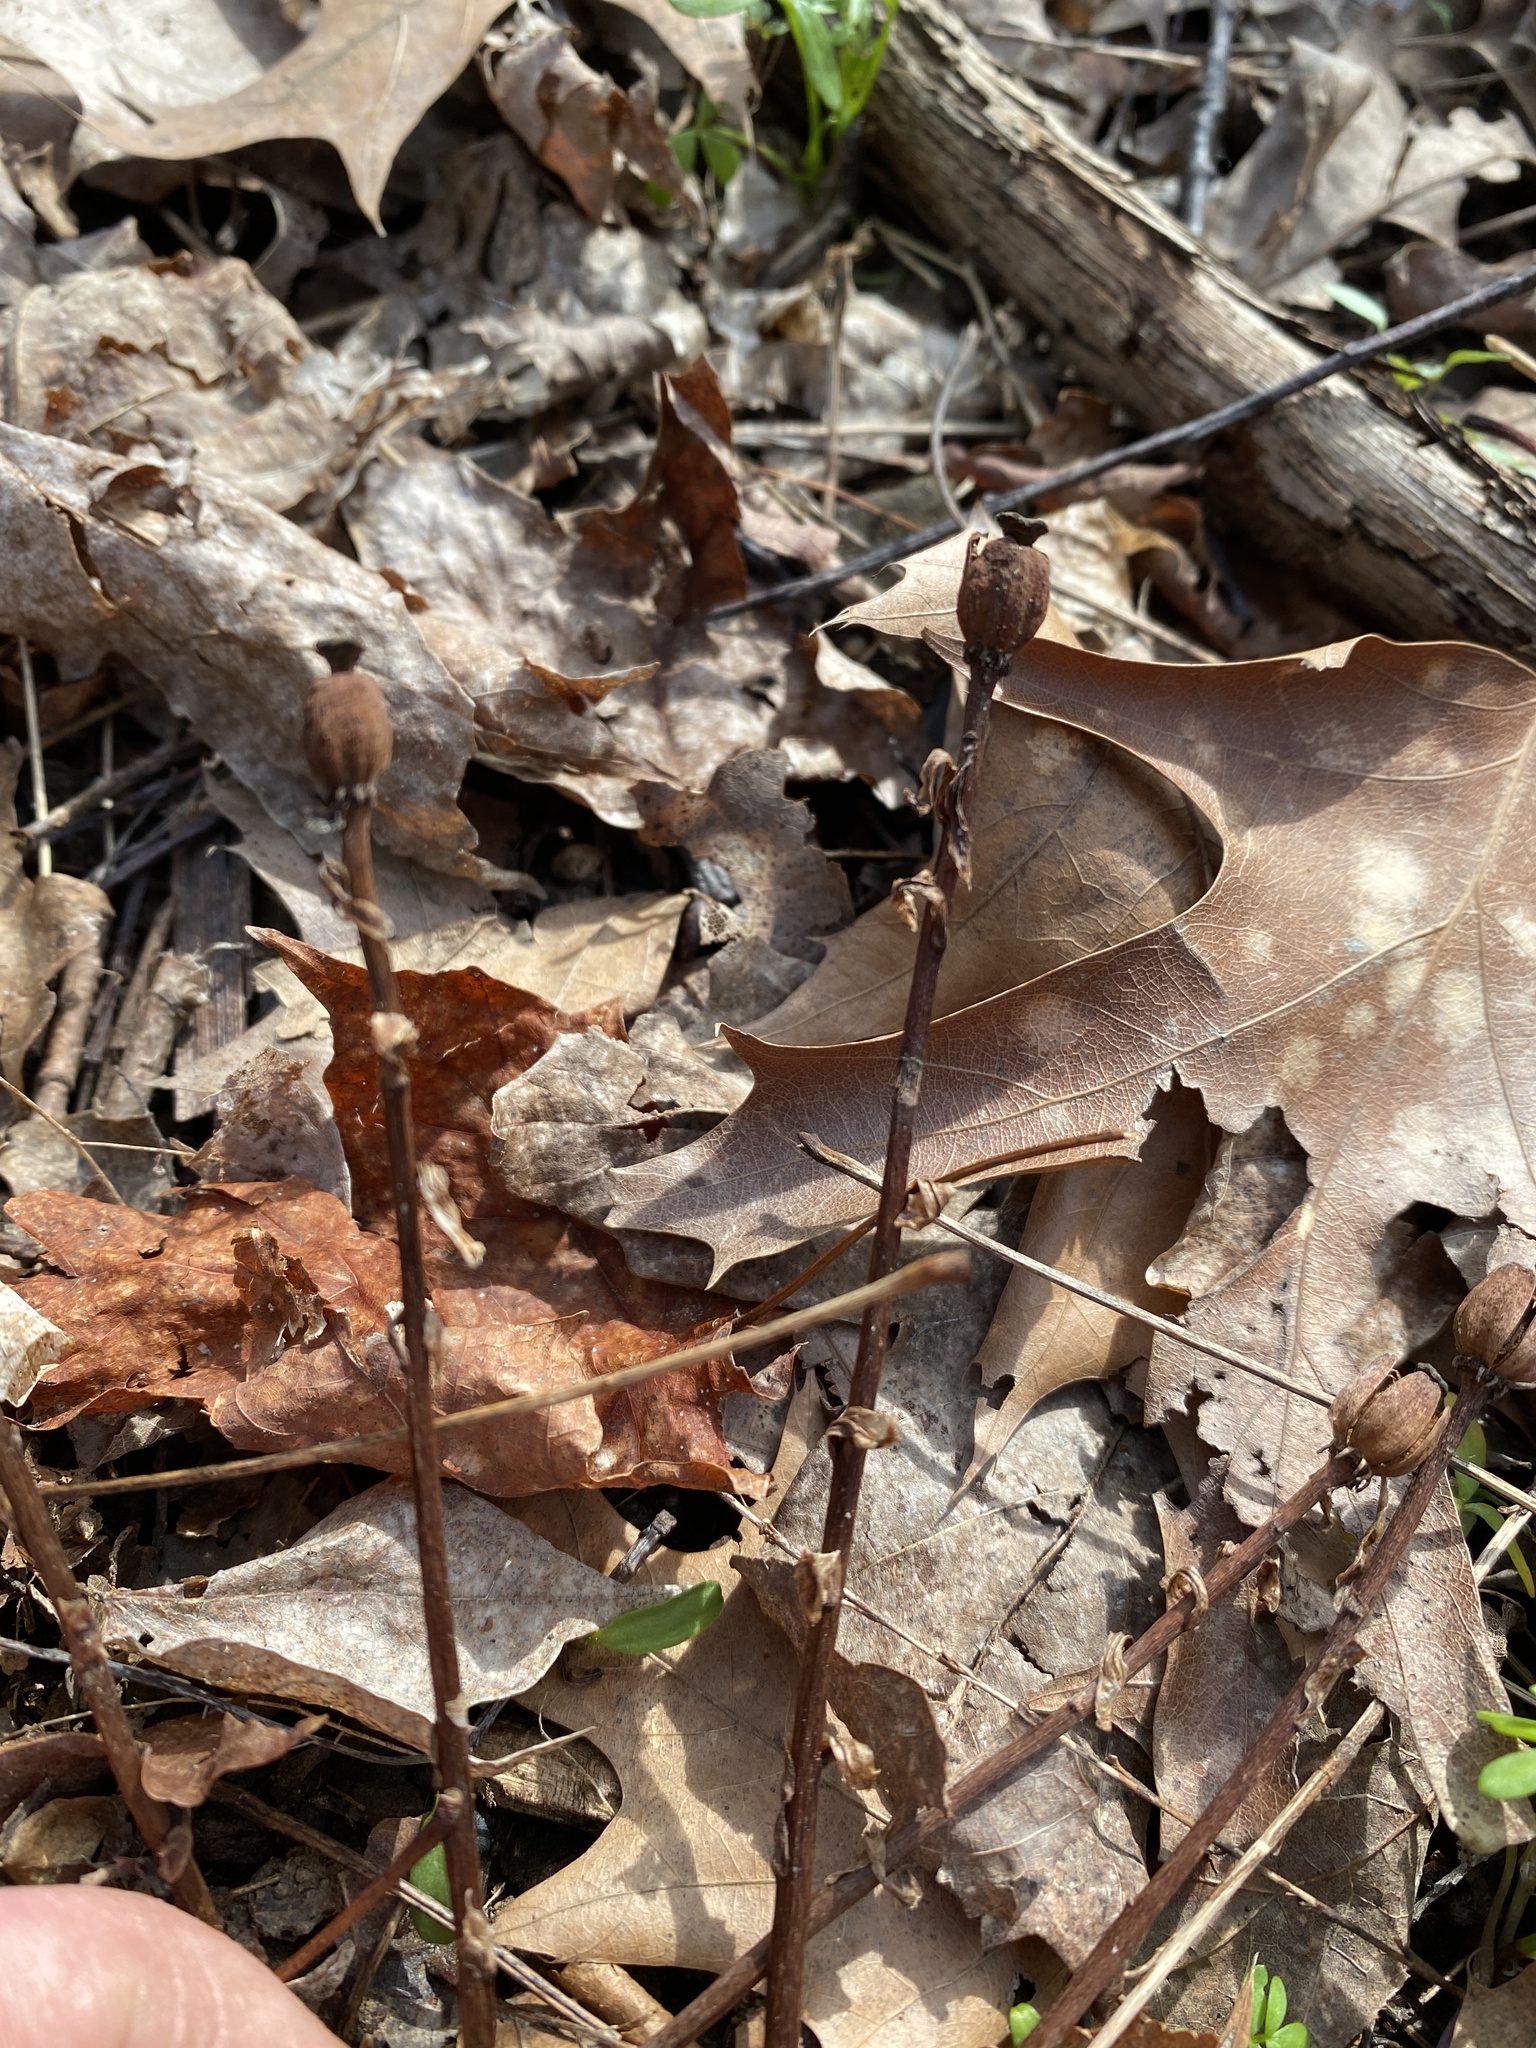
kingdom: Plantae
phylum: Tracheophyta
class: Magnoliopsida
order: Ericales
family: Ericaceae
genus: Monotropa
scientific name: Monotropa uniflora
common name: Convulsion root
